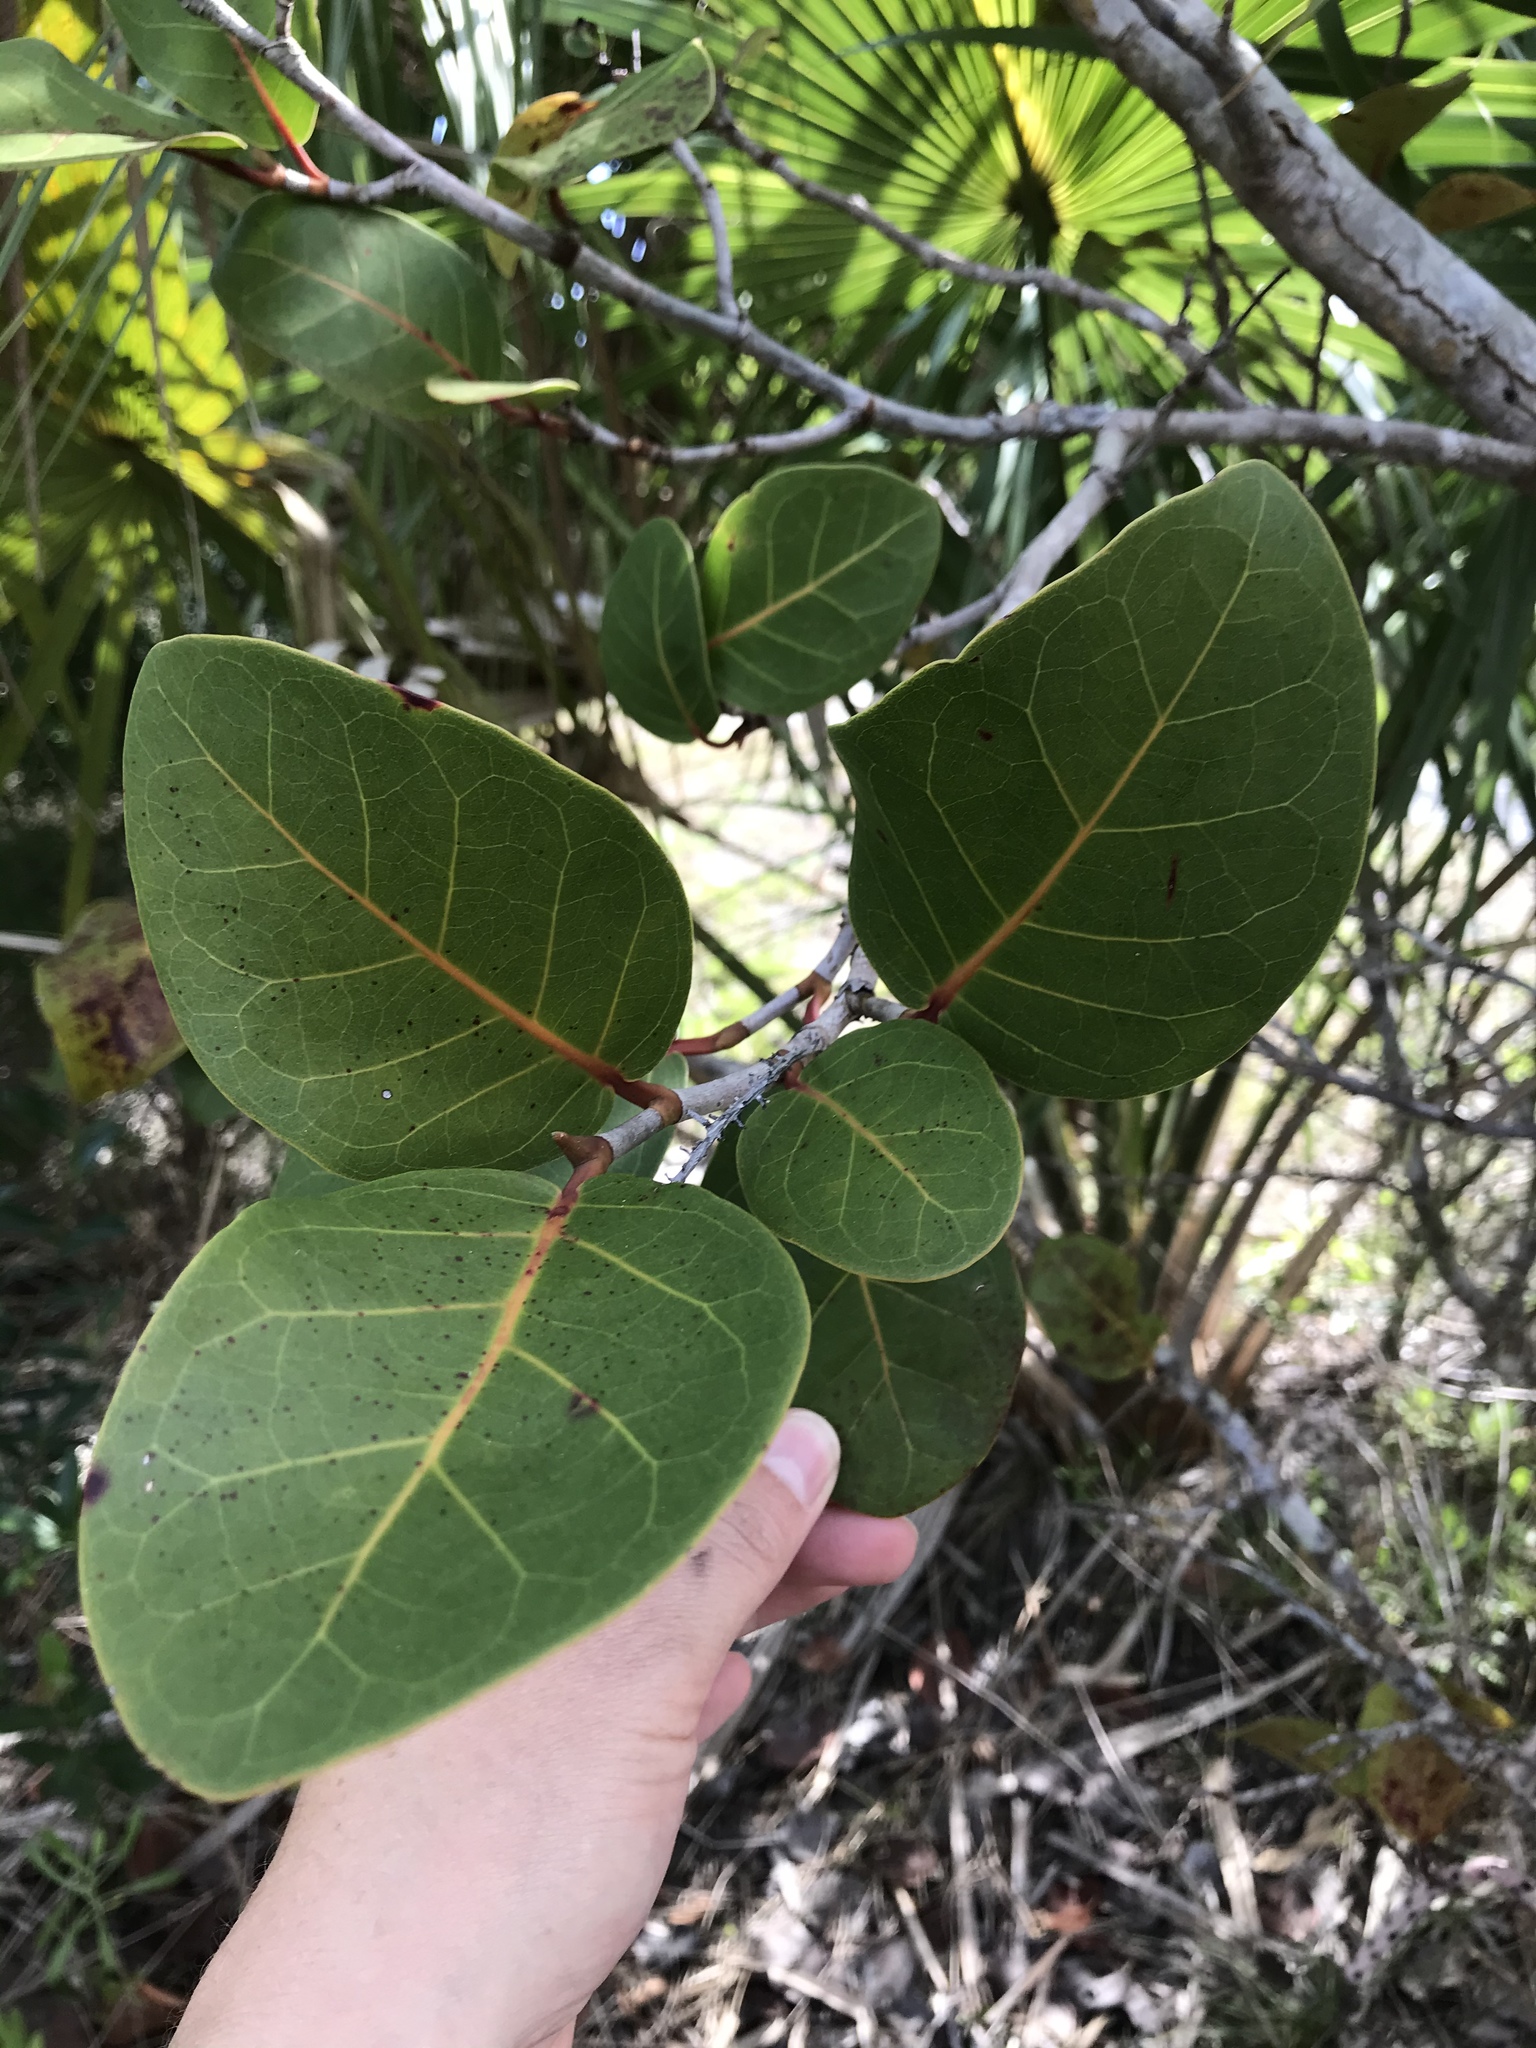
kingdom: Plantae
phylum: Tracheophyta
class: Magnoliopsida
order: Caryophyllales
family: Polygonaceae
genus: Coccoloba
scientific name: Coccoloba hybrida
